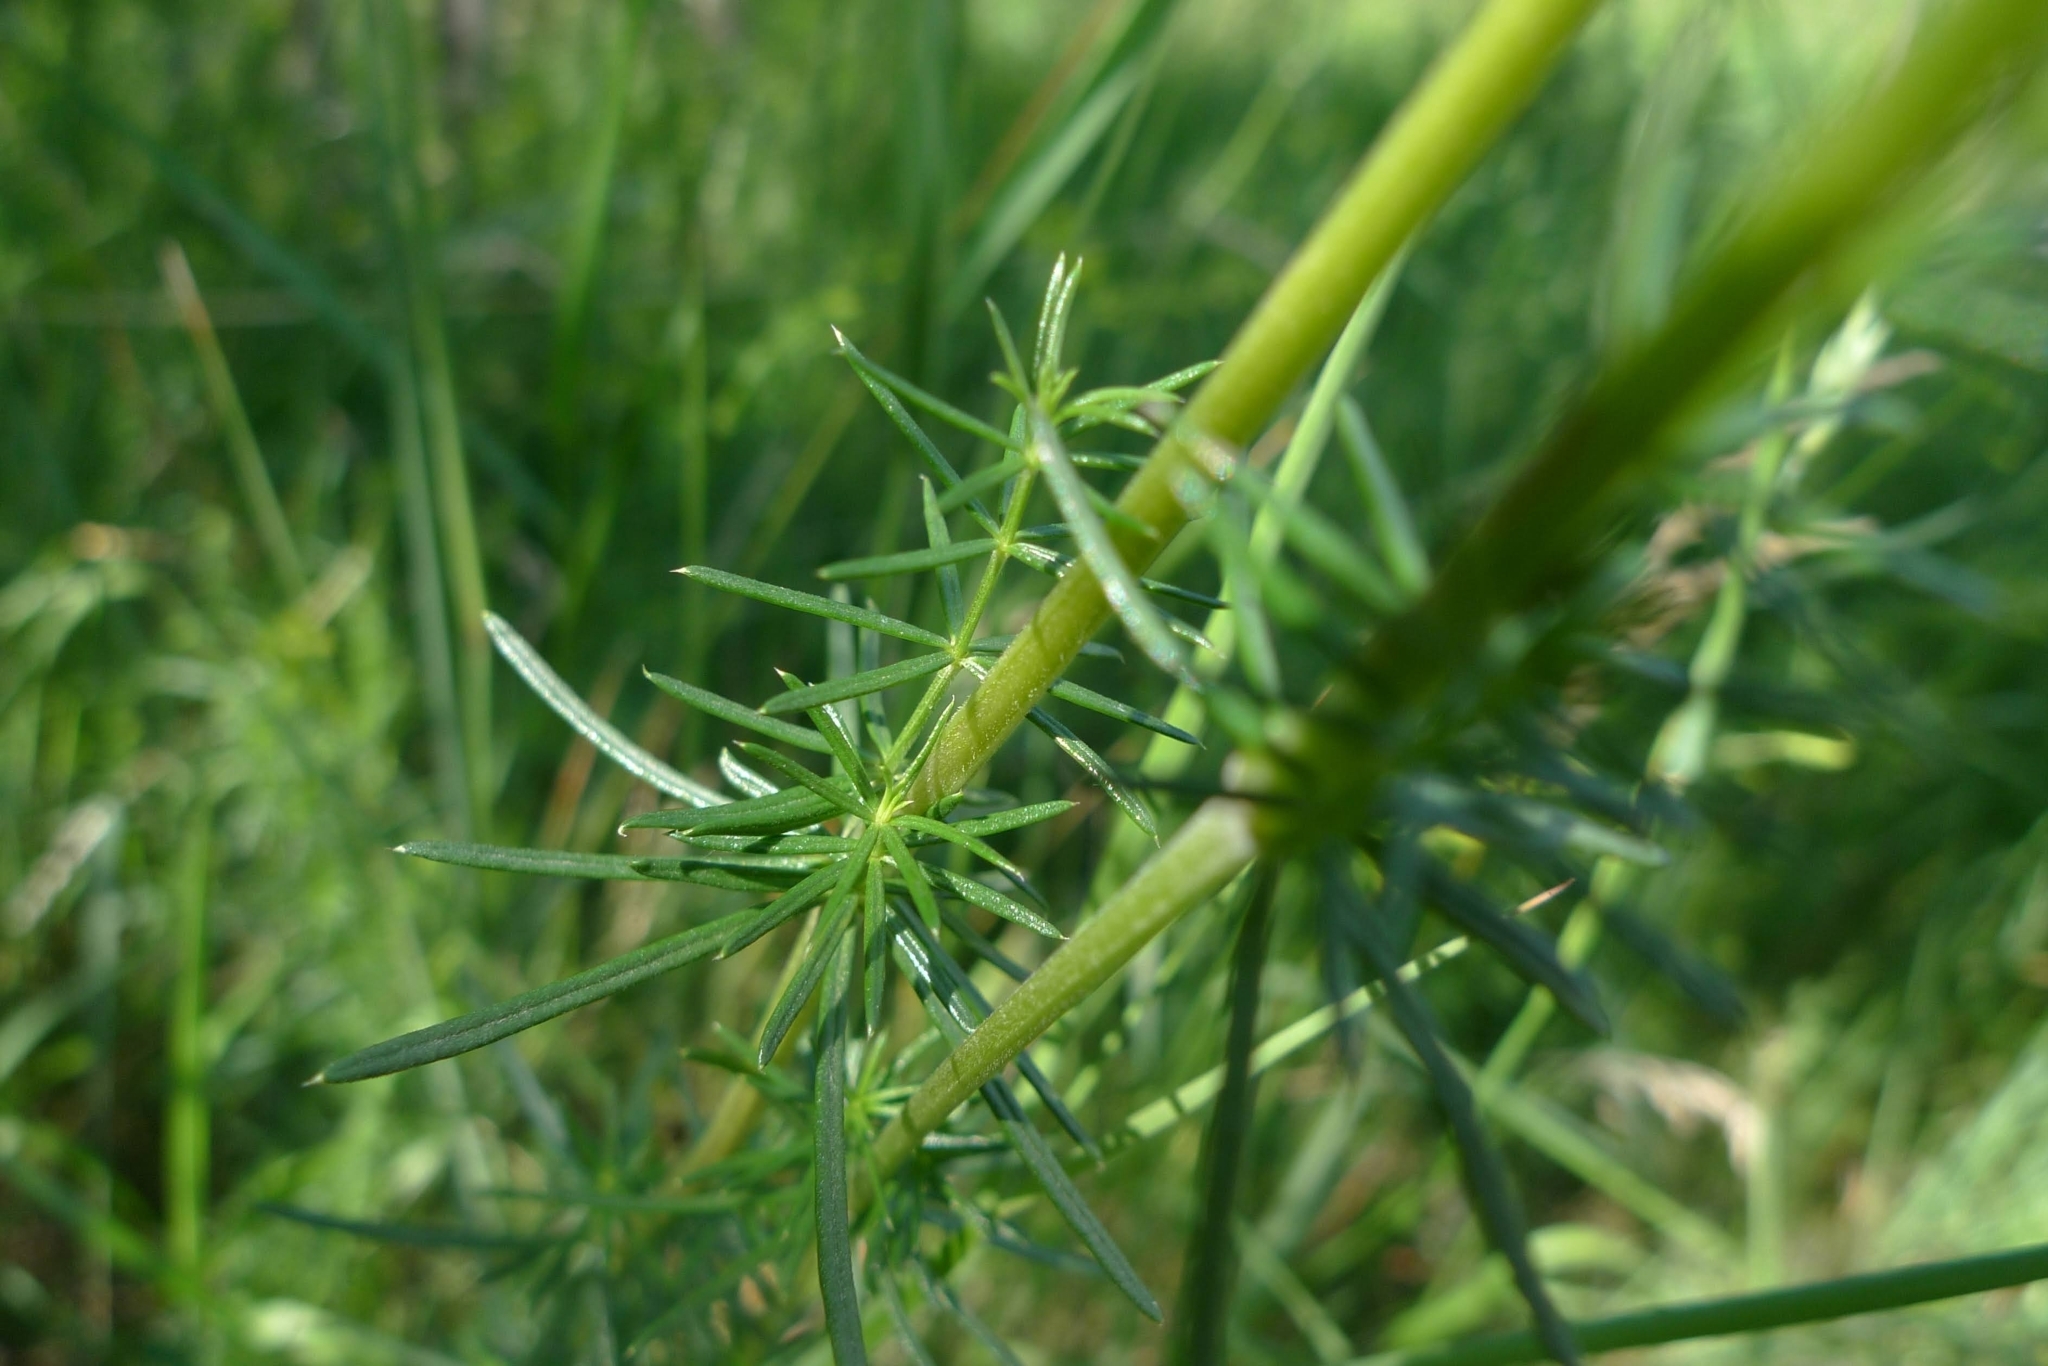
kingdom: Plantae
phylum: Tracheophyta
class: Magnoliopsida
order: Gentianales
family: Rubiaceae
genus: Galium
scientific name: Galium verum
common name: Lady's bedstraw
